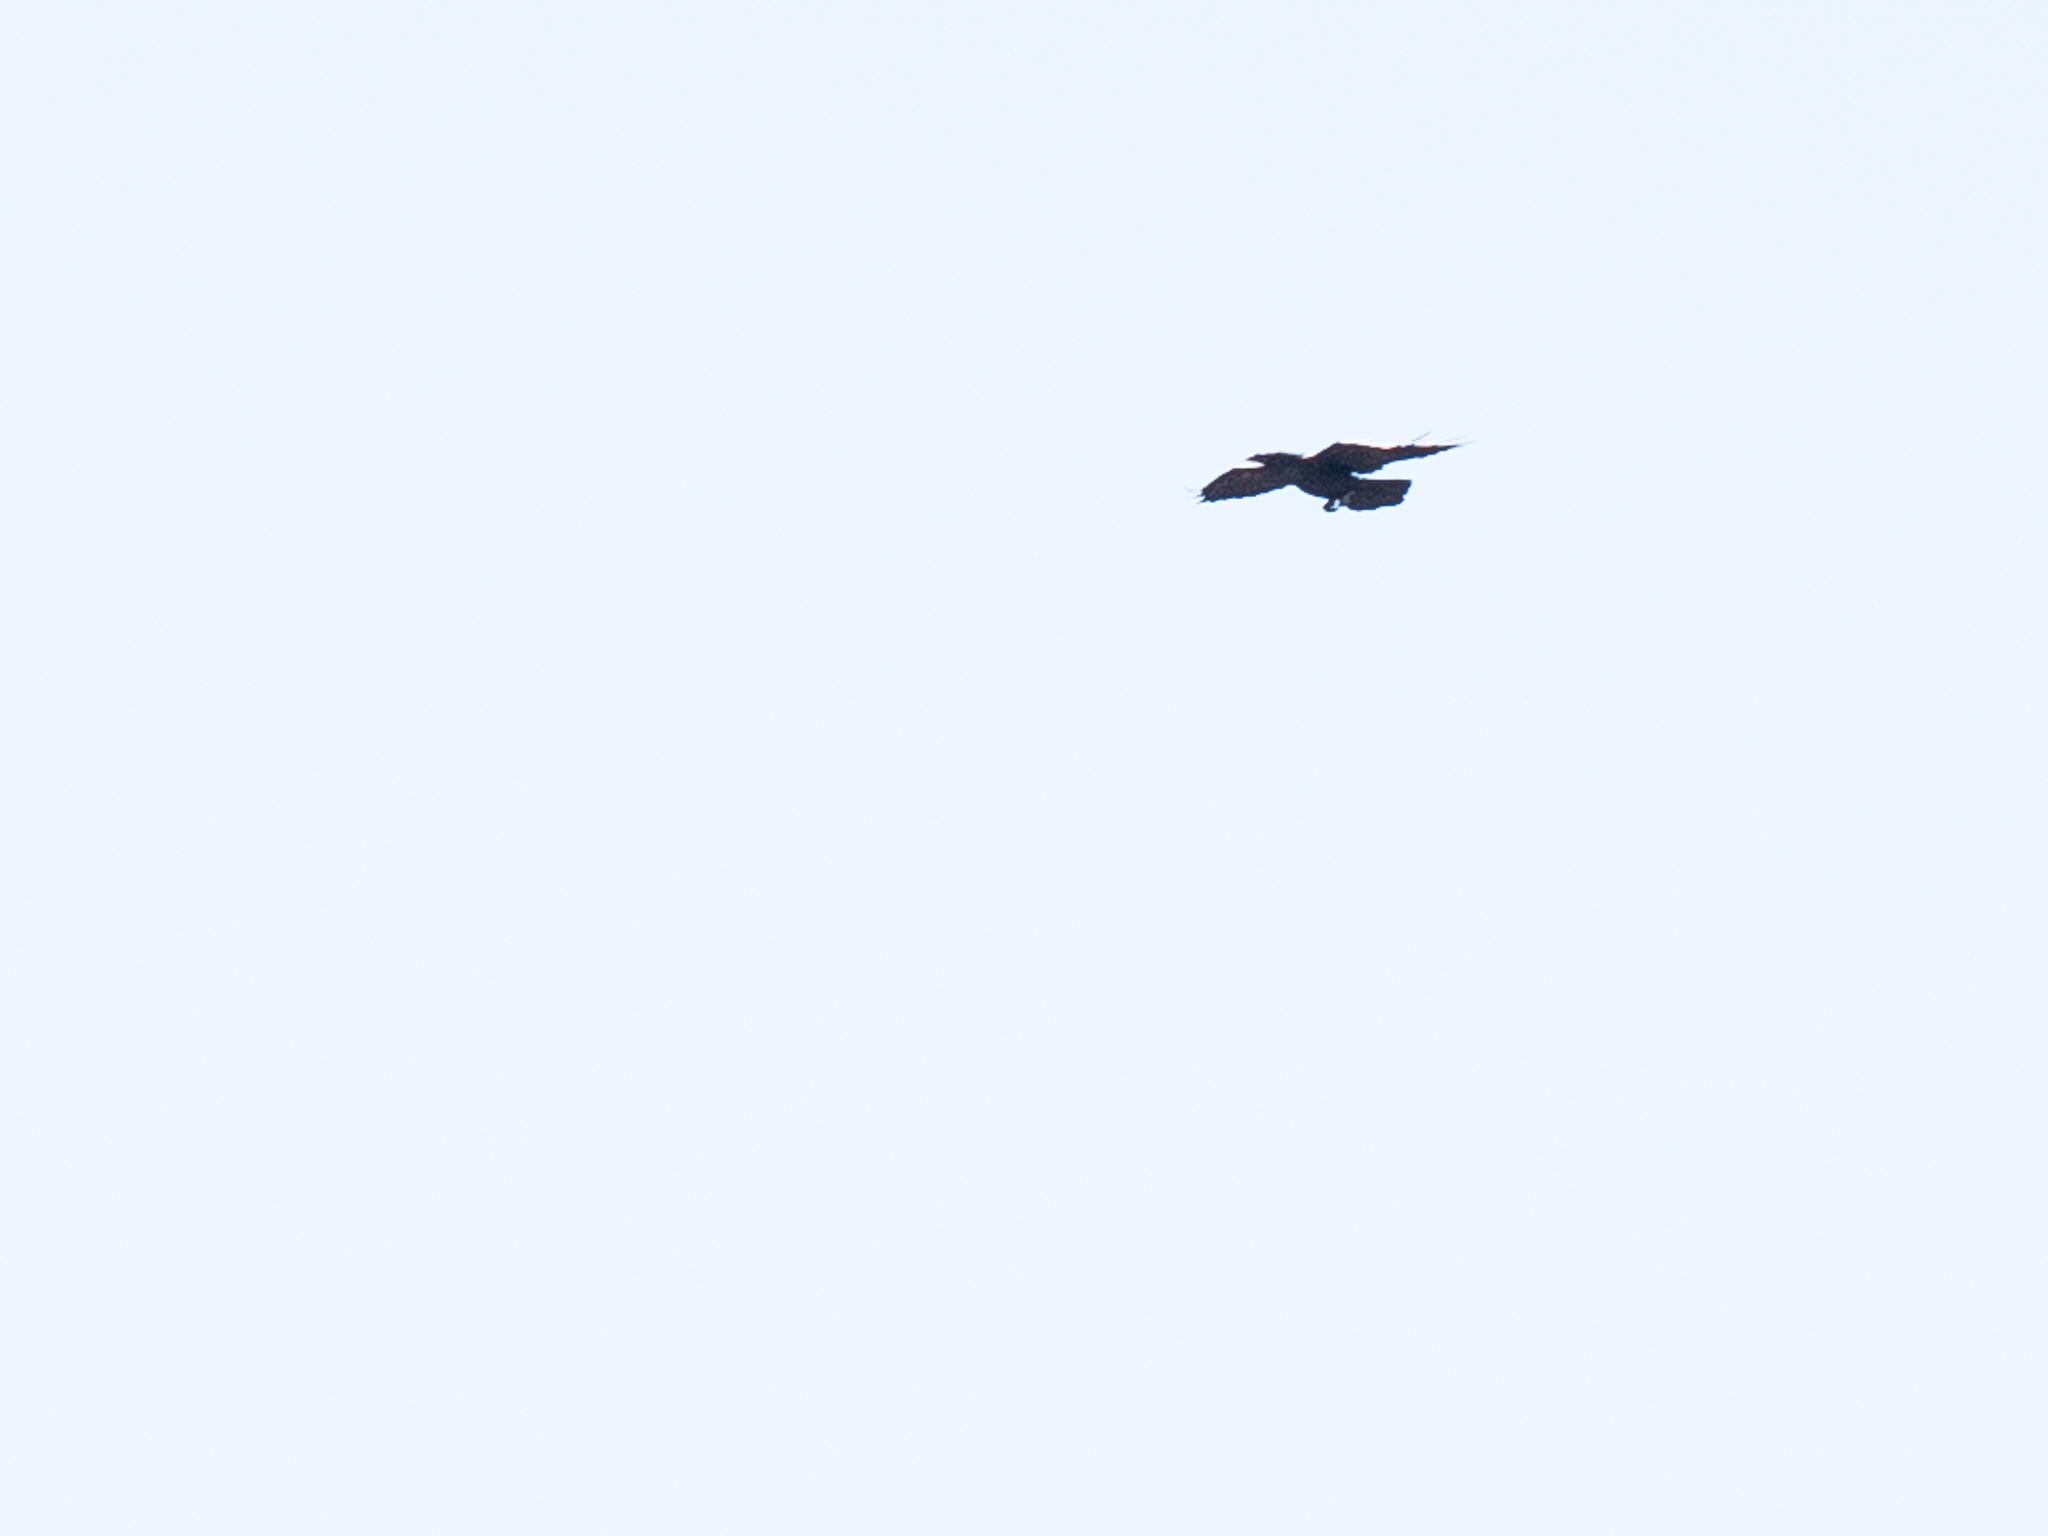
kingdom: Animalia
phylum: Chordata
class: Aves
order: Passeriformes
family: Corvidae
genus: Corvus
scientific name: Corvus corax
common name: Common raven
